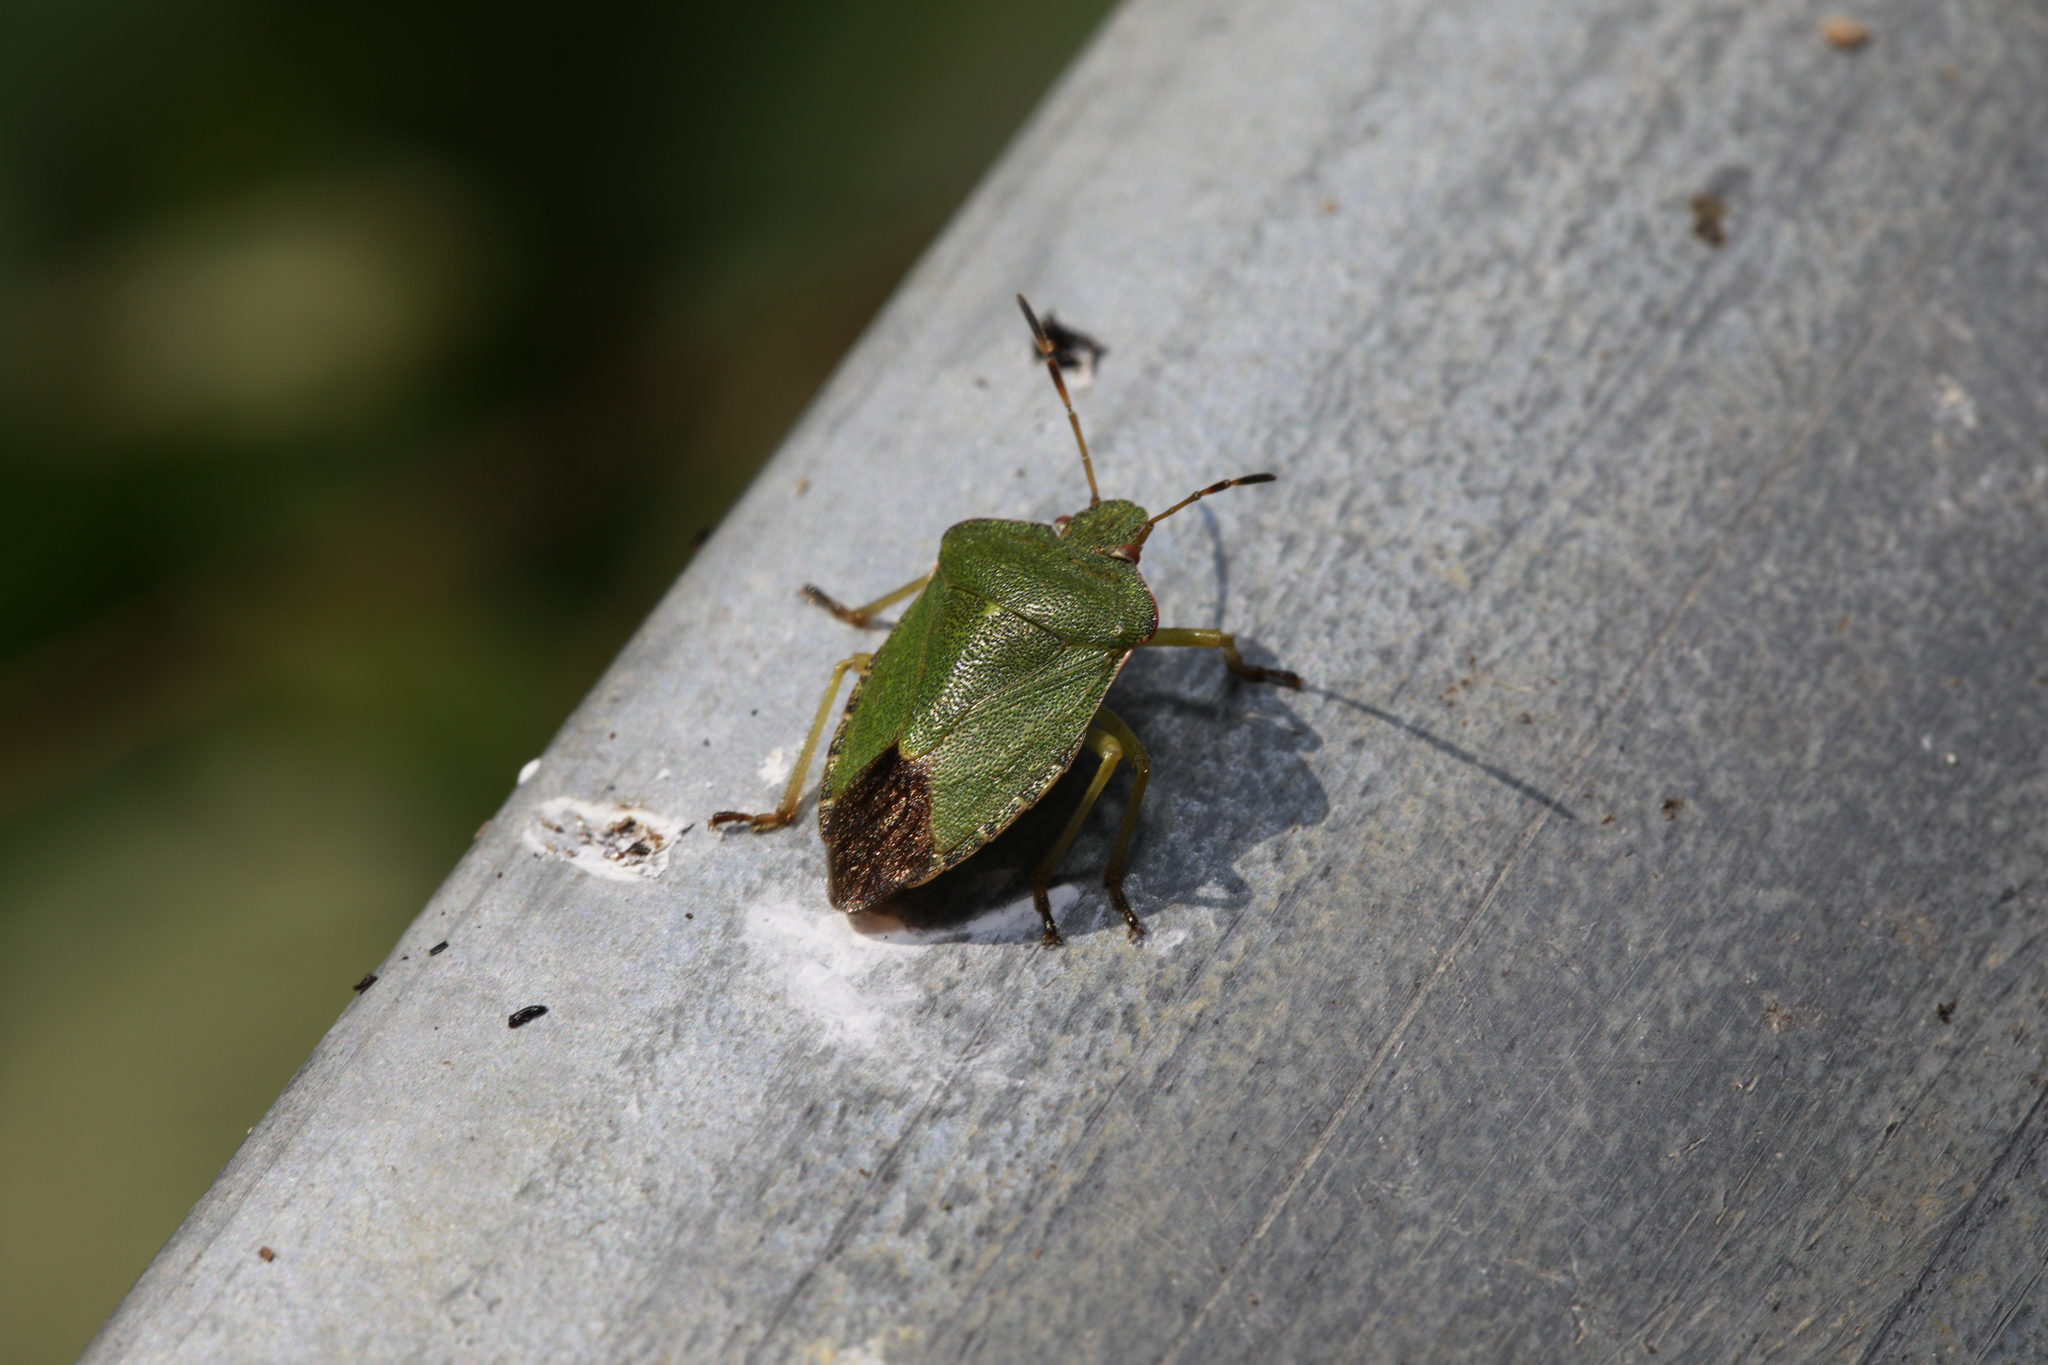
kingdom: Animalia
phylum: Arthropoda
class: Insecta
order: Hemiptera
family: Pentatomidae
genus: Palomena
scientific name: Palomena prasina
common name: Green shieldbug
